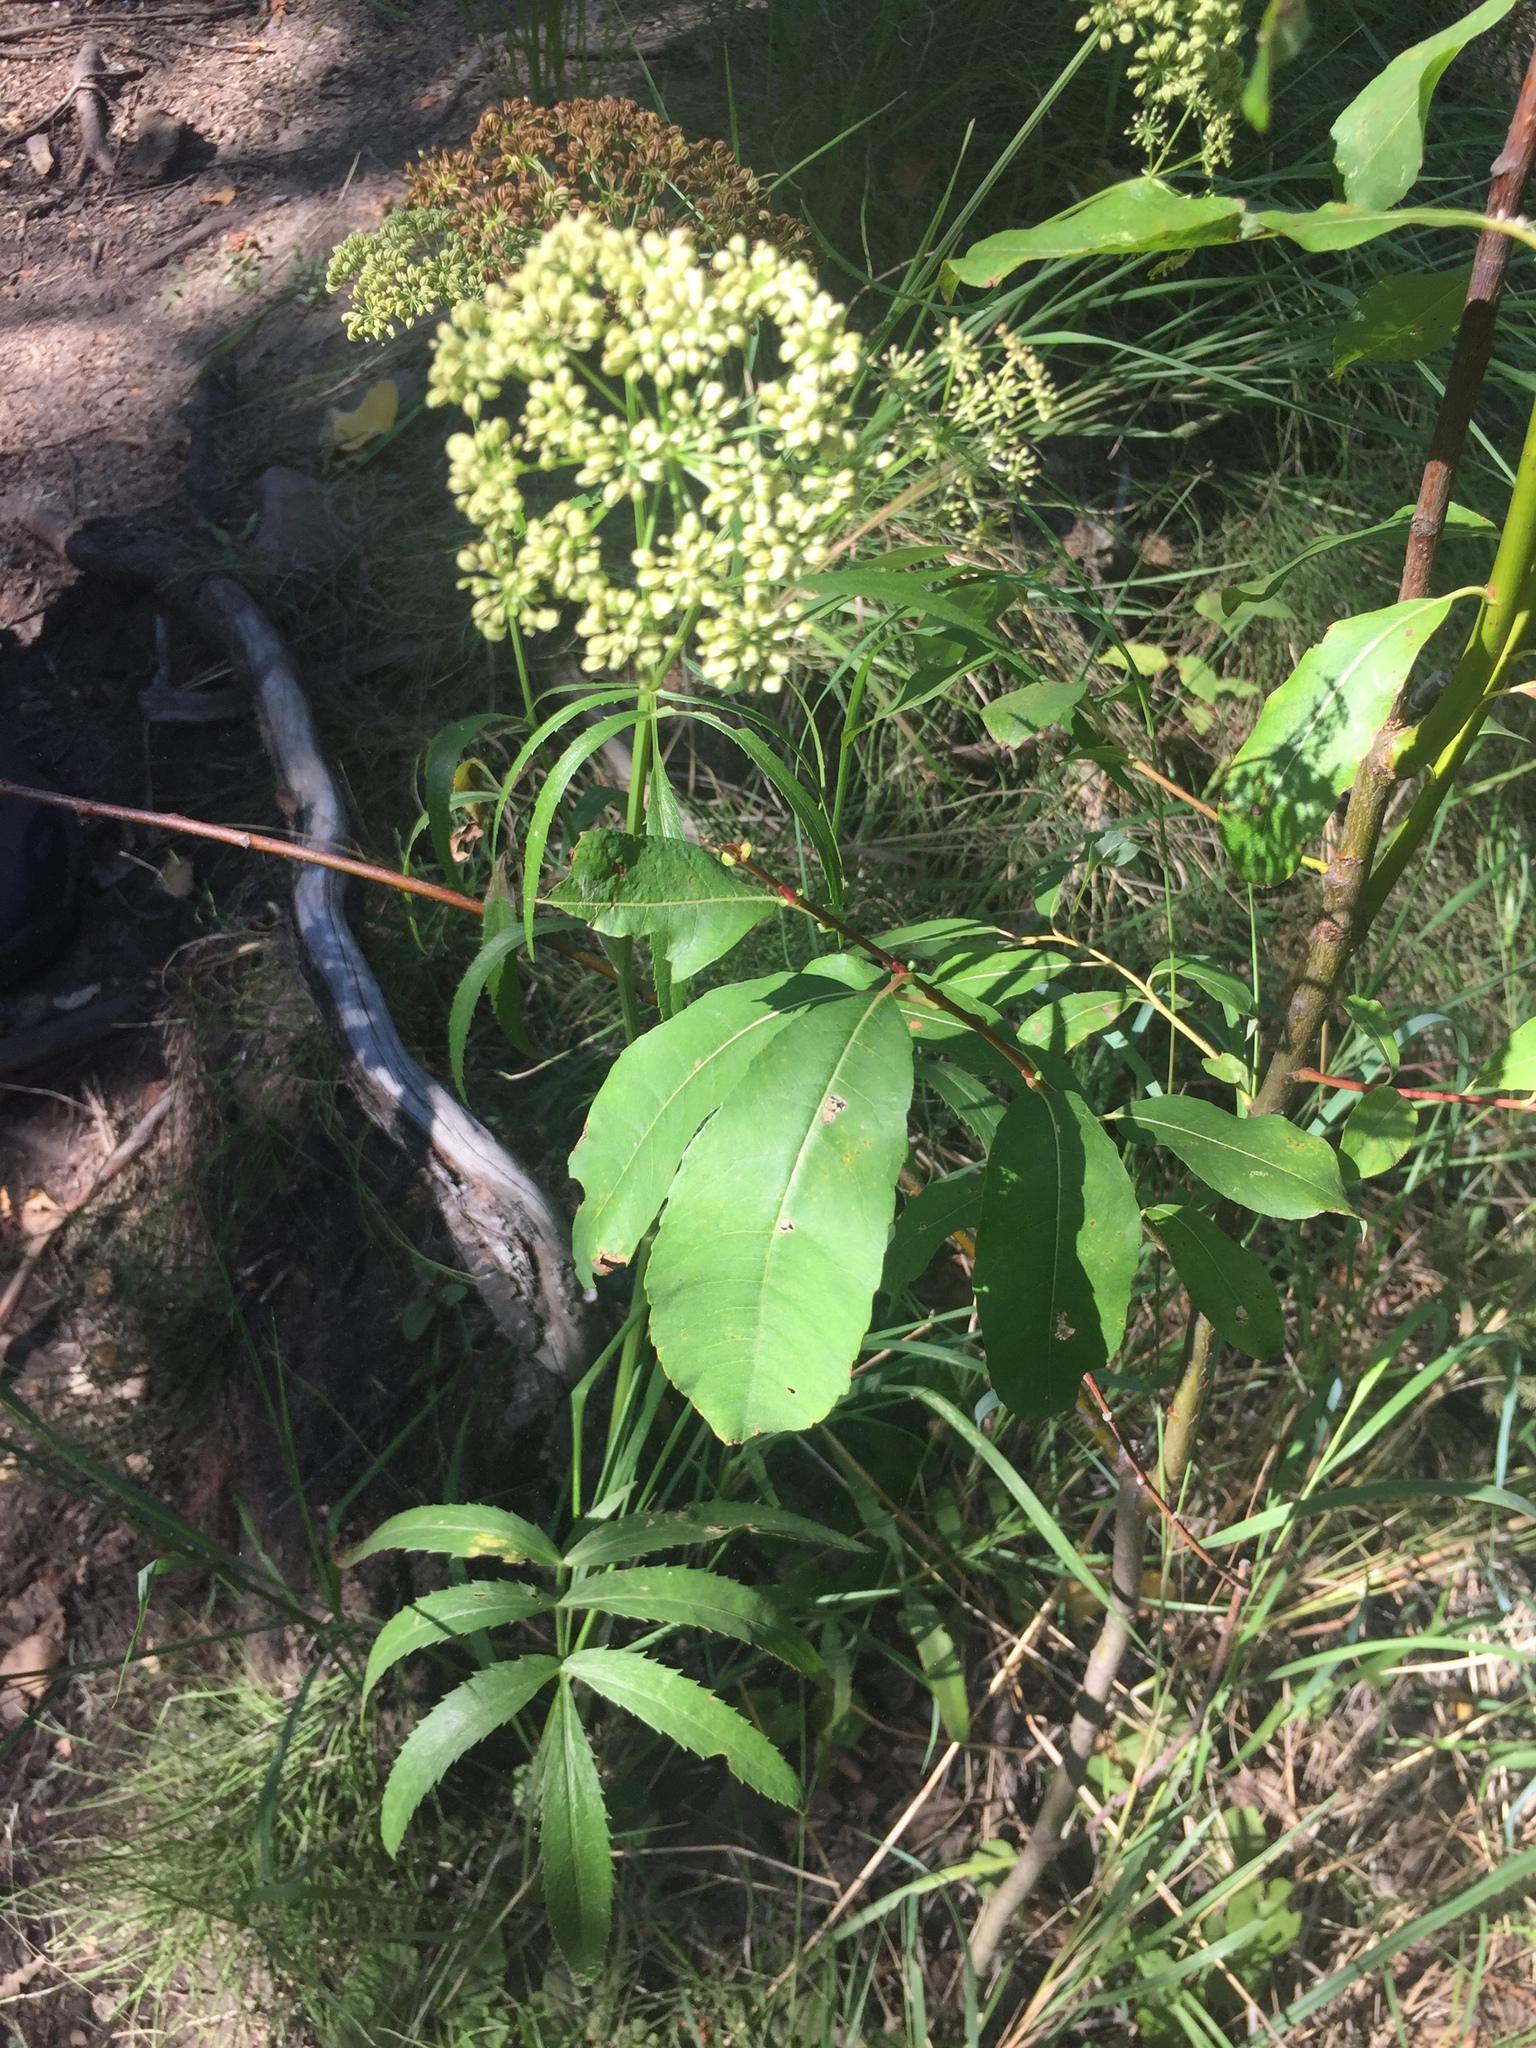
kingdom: Plantae
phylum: Tracheophyta
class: Magnoliopsida
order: Apiales
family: Apiaceae
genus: Sium
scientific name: Sium suave
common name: Hemlock water-parsnip
